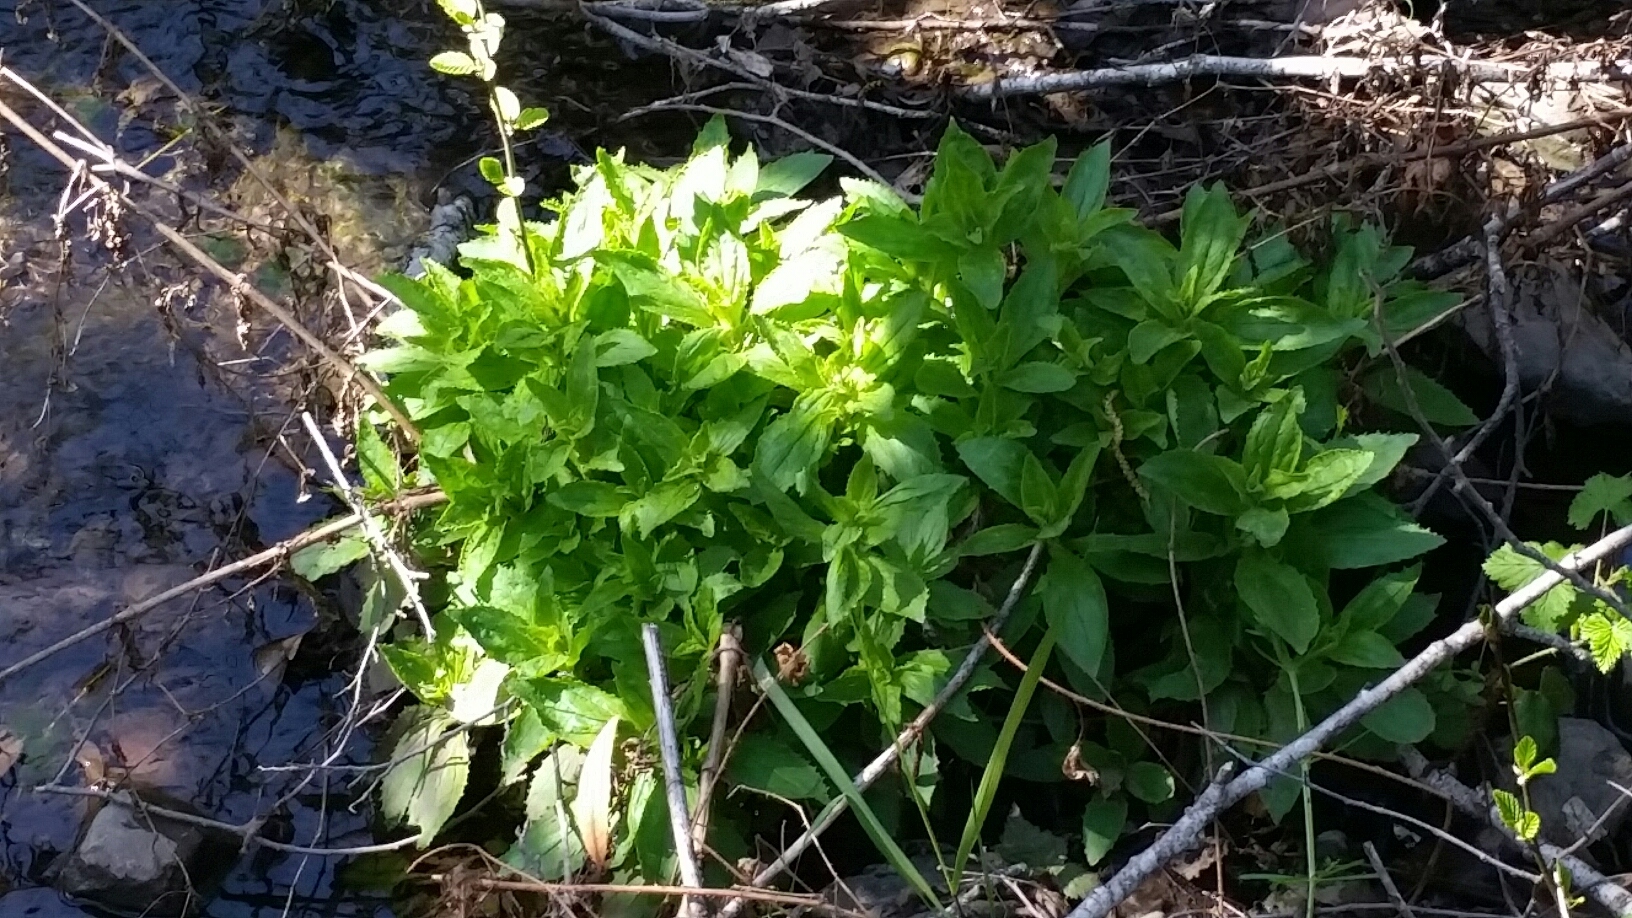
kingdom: Plantae
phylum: Tracheophyta
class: Magnoliopsida
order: Lamiales
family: Phrymaceae
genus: Erythranthe
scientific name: Erythranthe cardinalis
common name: Scarlet monkey-flower
